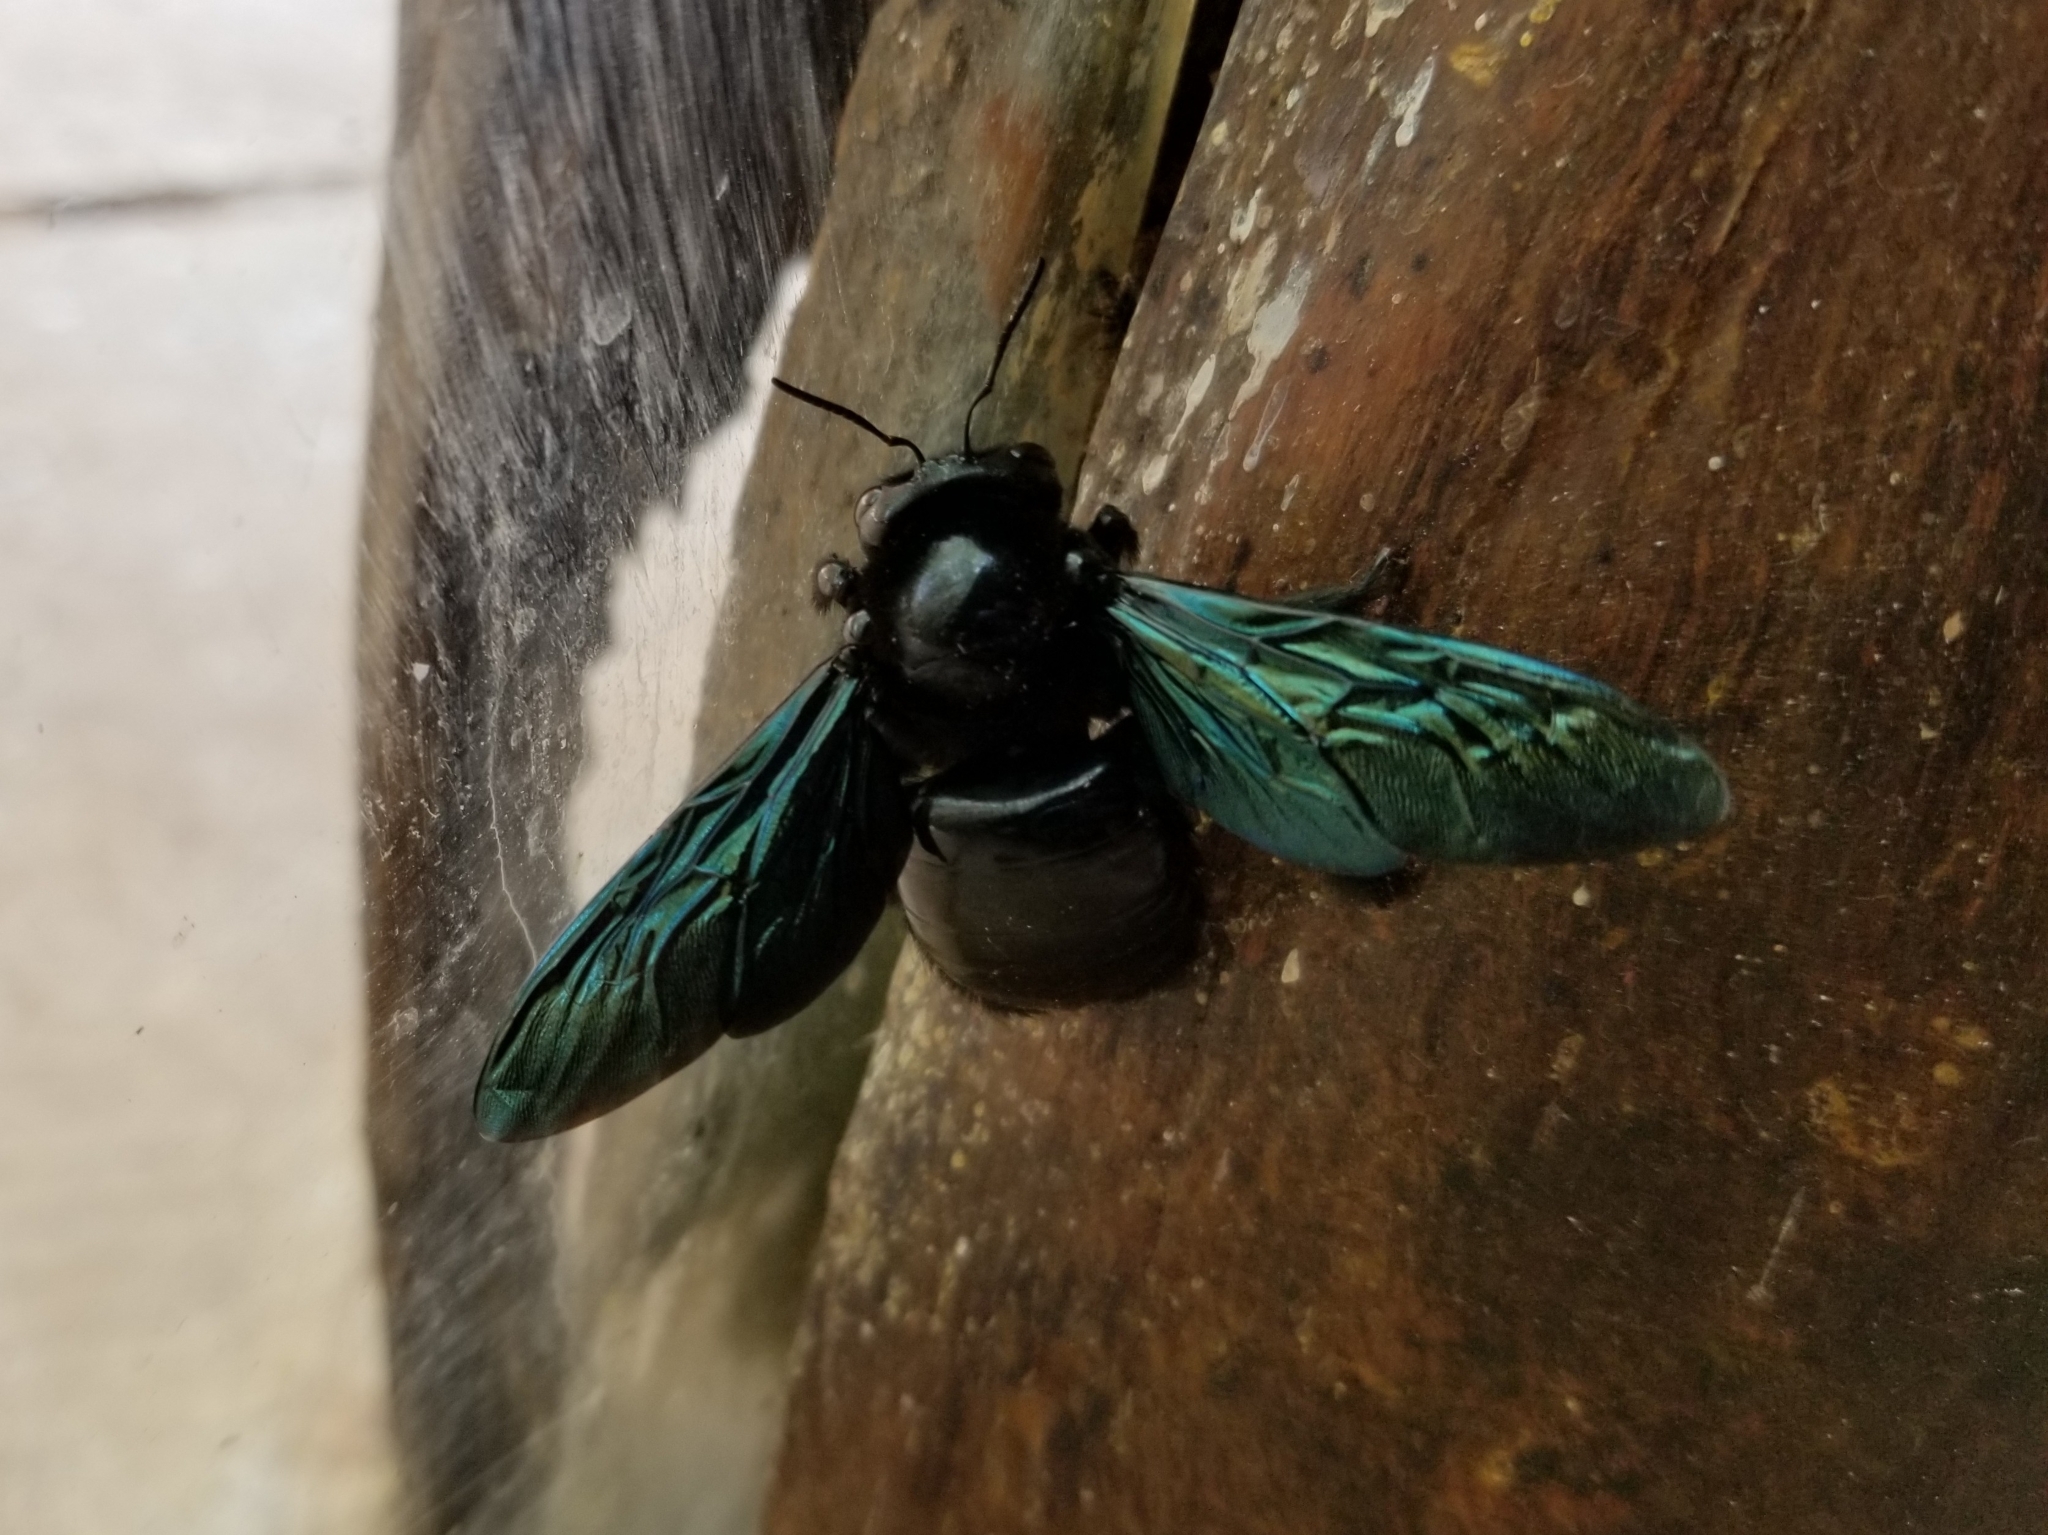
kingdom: Animalia
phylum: Arthropoda
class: Insecta
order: Hymenoptera
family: Apidae
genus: Xylocopa
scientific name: Xylocopa nautlana
